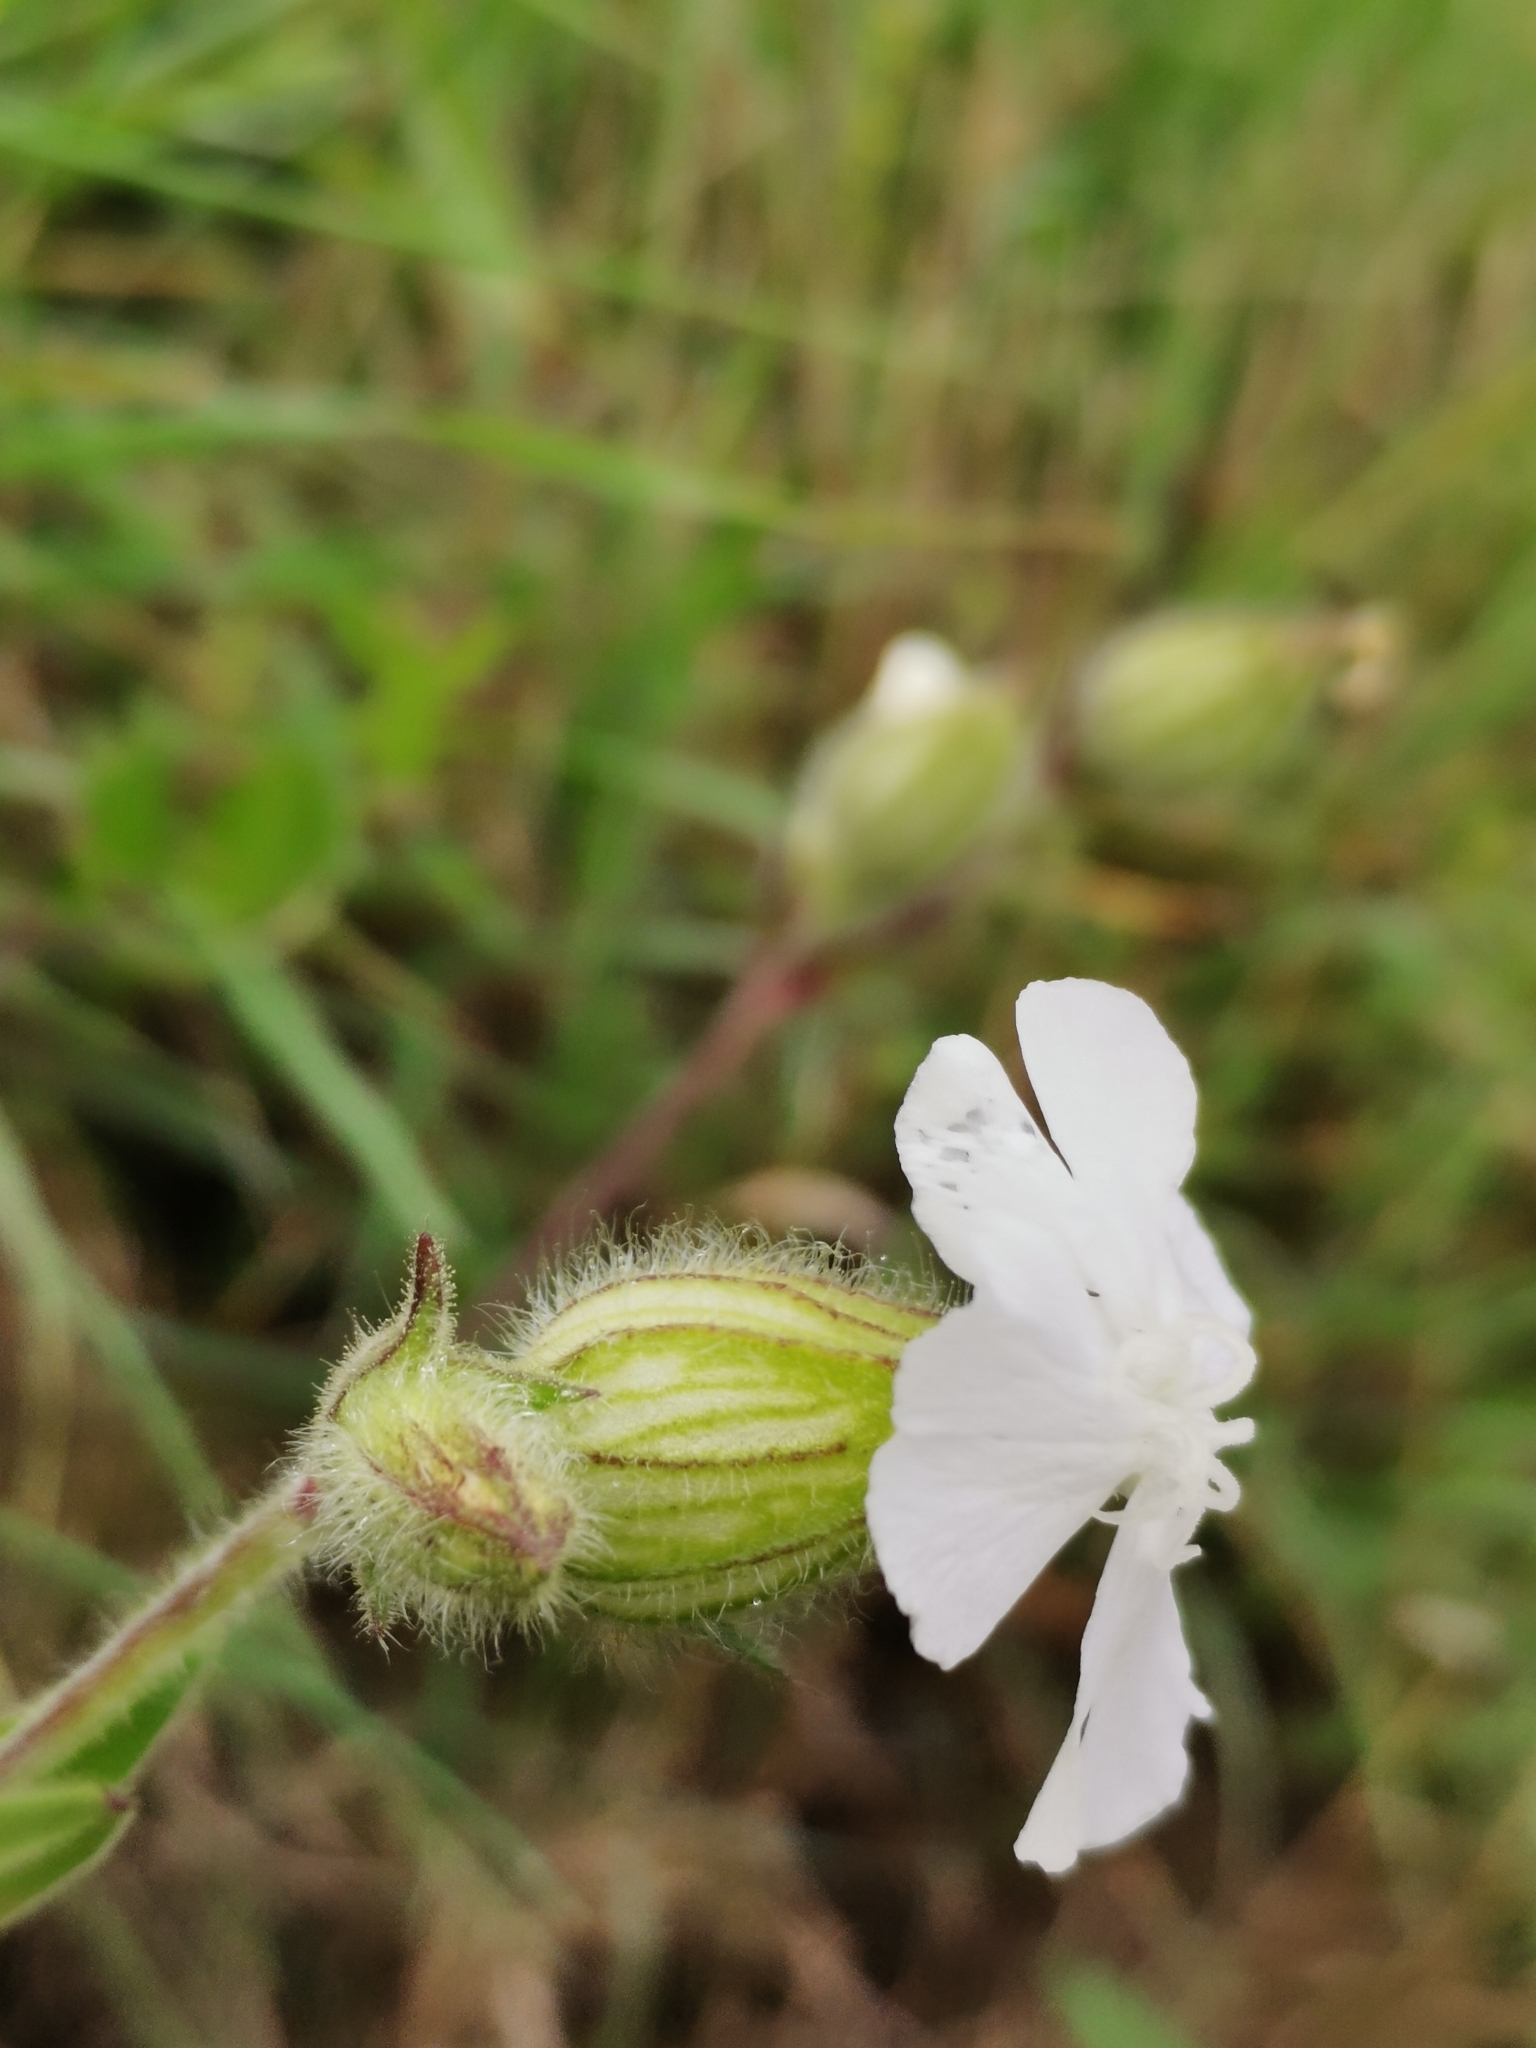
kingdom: Plantae
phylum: Tracheophyta
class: Magnoliopsida
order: Caryophyllales
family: Caryophyllaceae
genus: Silene
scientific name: Silene latifolia
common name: White campion
